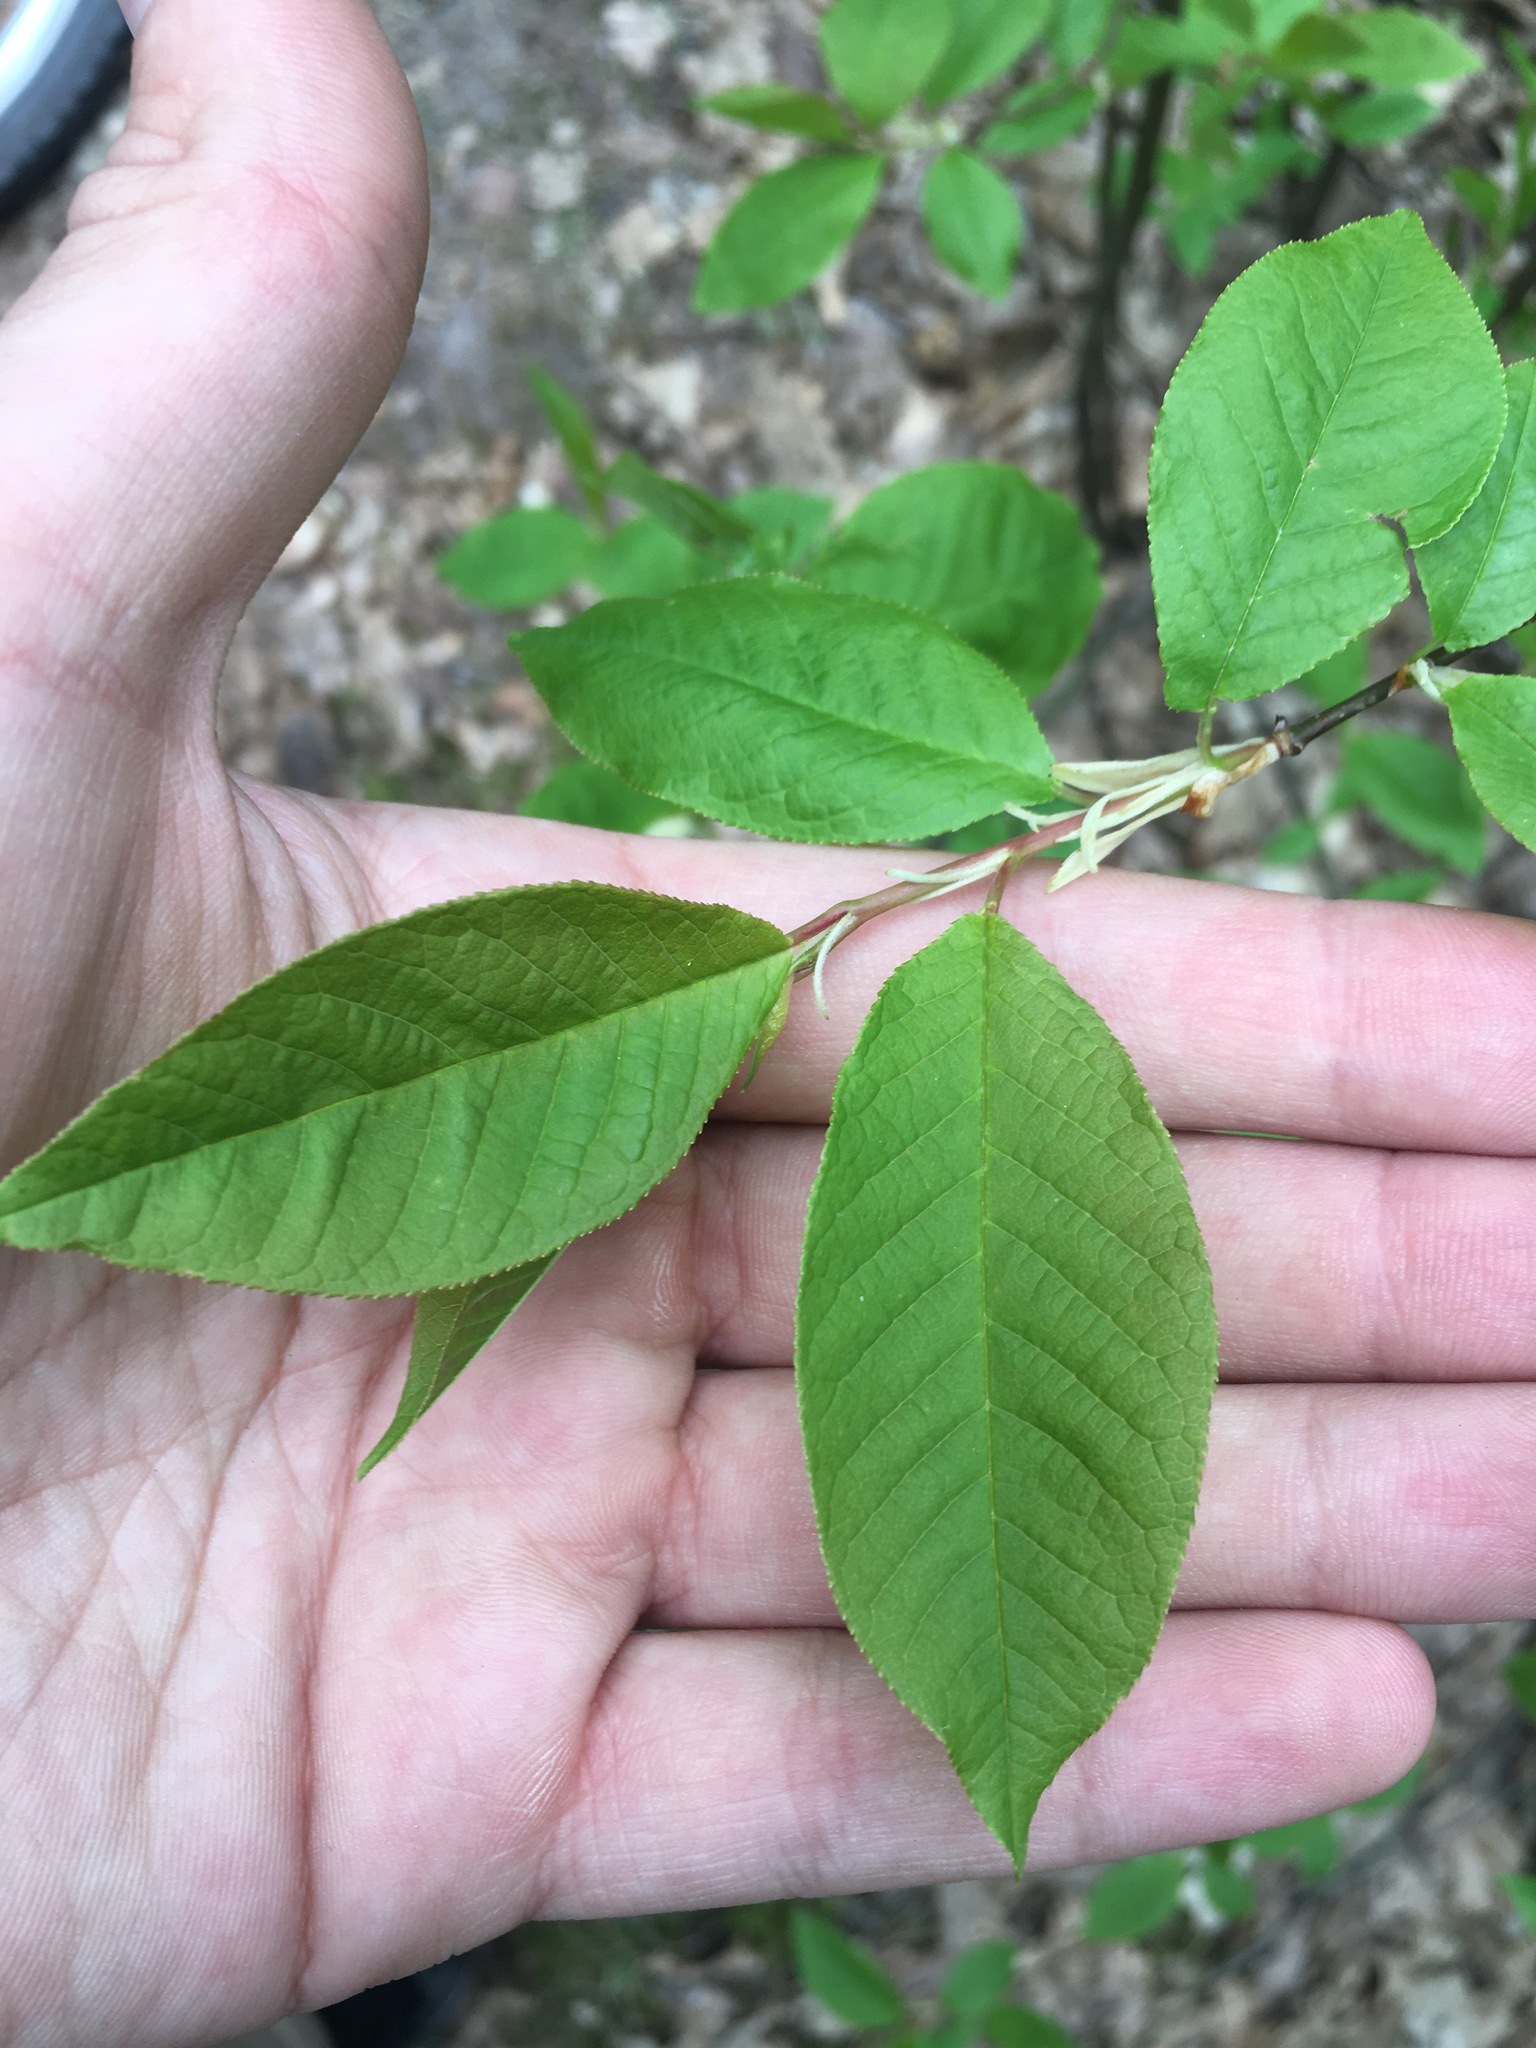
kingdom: Plantae
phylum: Tracheophyta
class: Magnoliopsida
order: Rosales
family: Rosaceae
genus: Prunus
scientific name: Prunus padus
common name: Bird cherry
